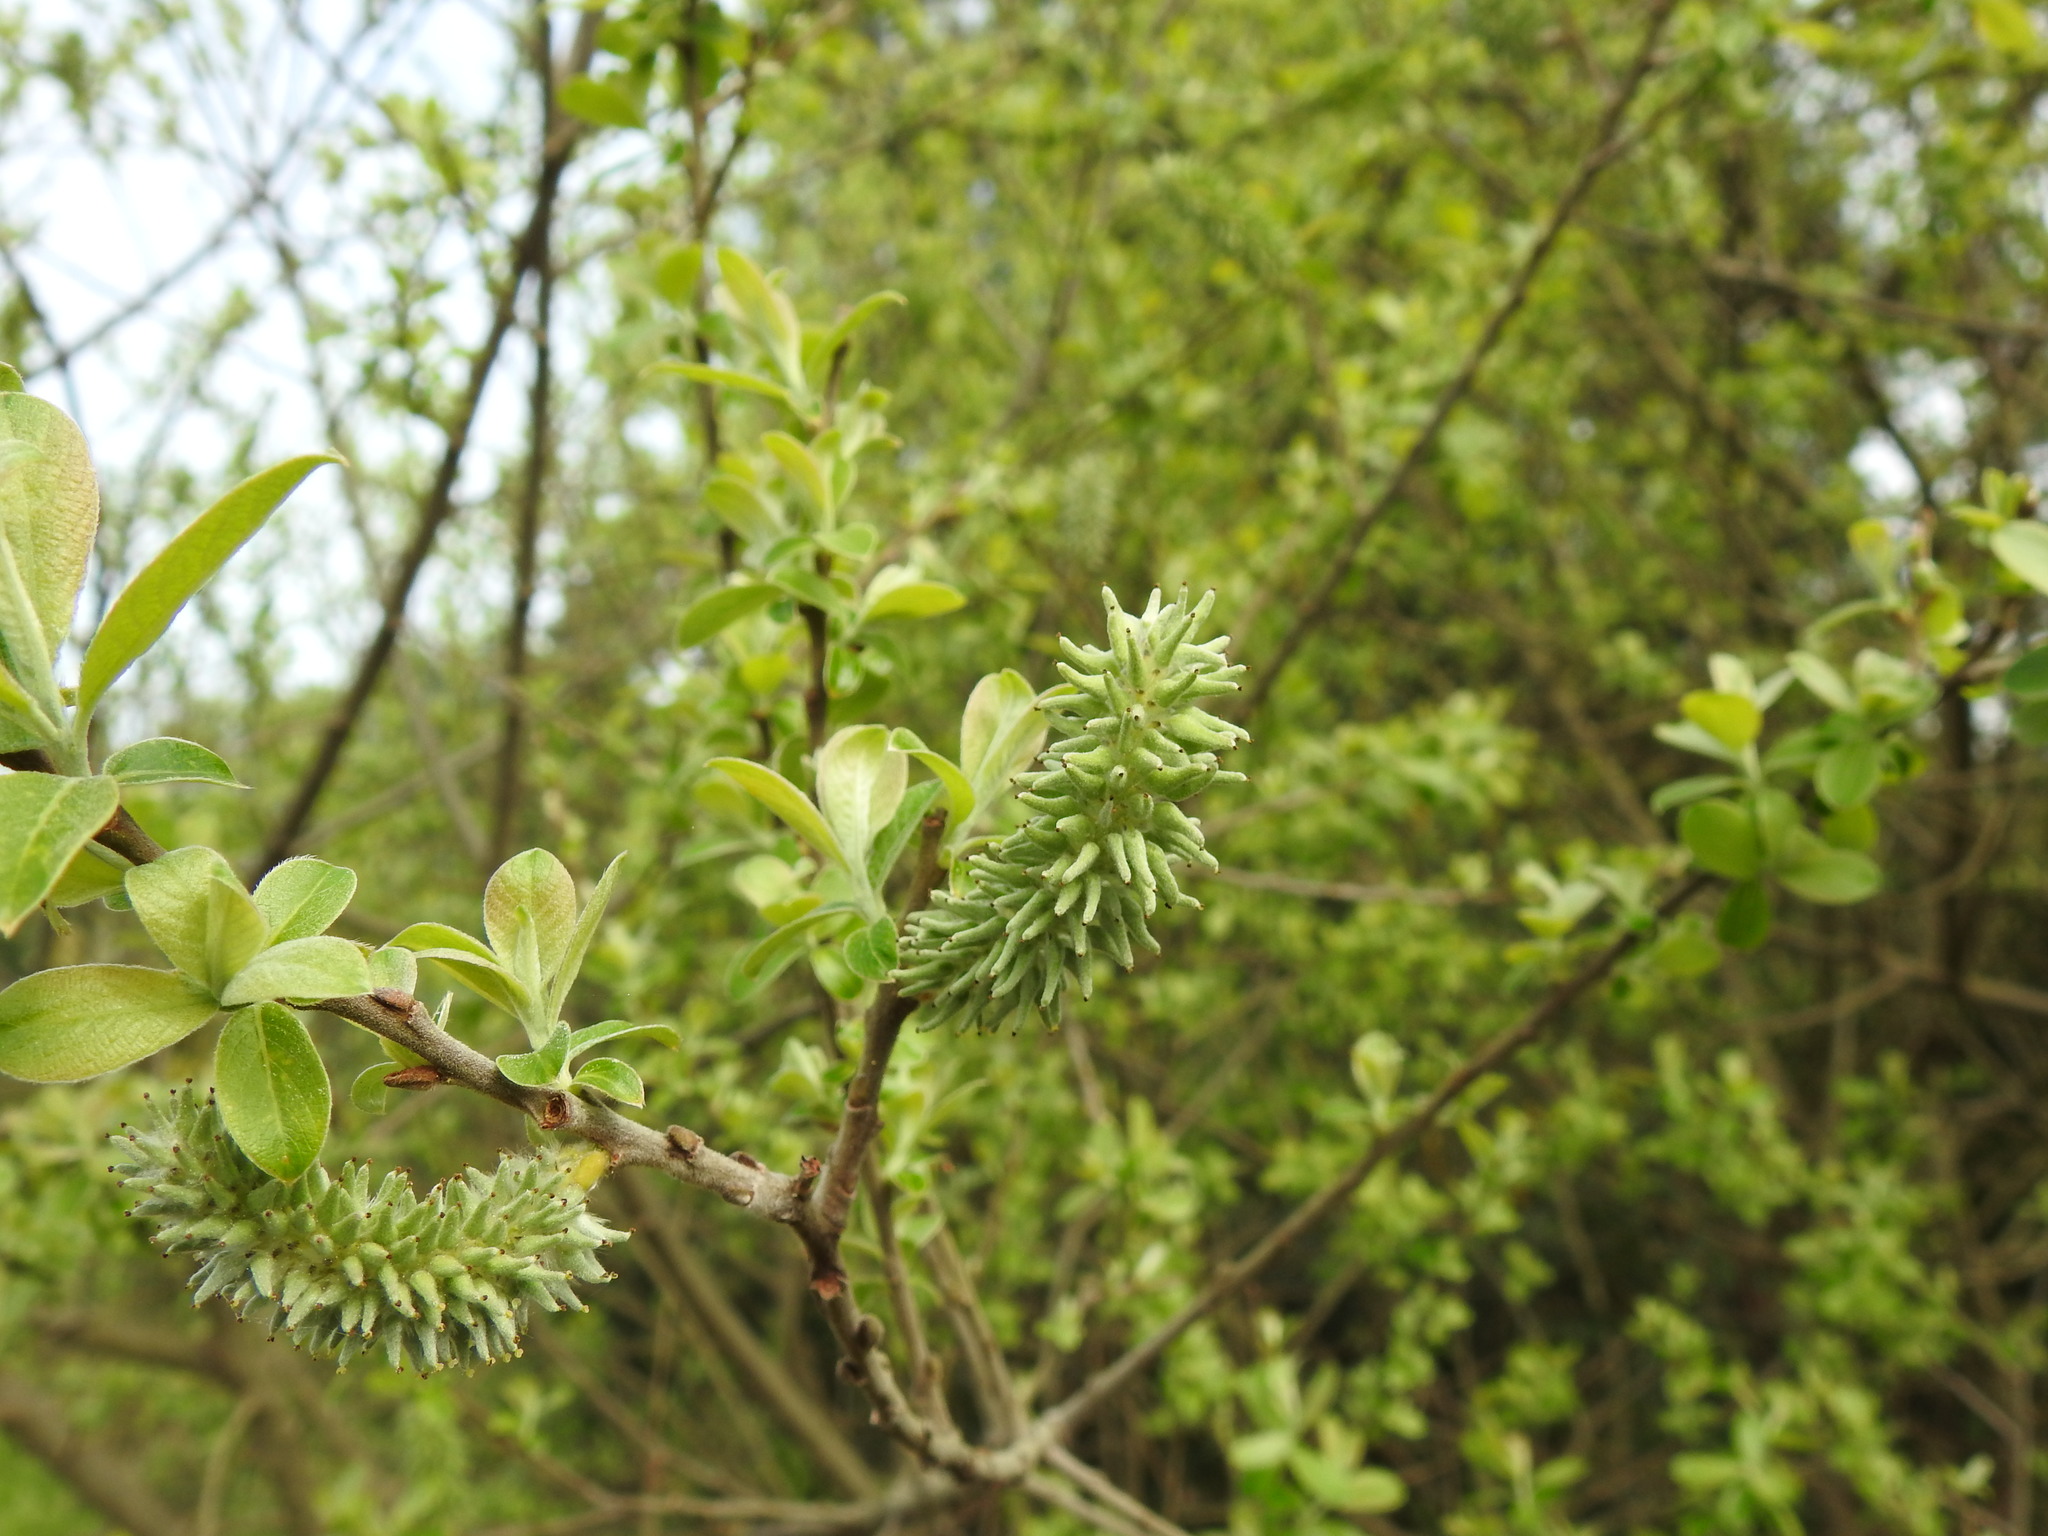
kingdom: Plantae
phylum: Tracheophyta
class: Magnoliopsida
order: Malpighiales
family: Salicaceae
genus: Salix
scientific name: Salix atrocinerea
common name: Rusty willow
